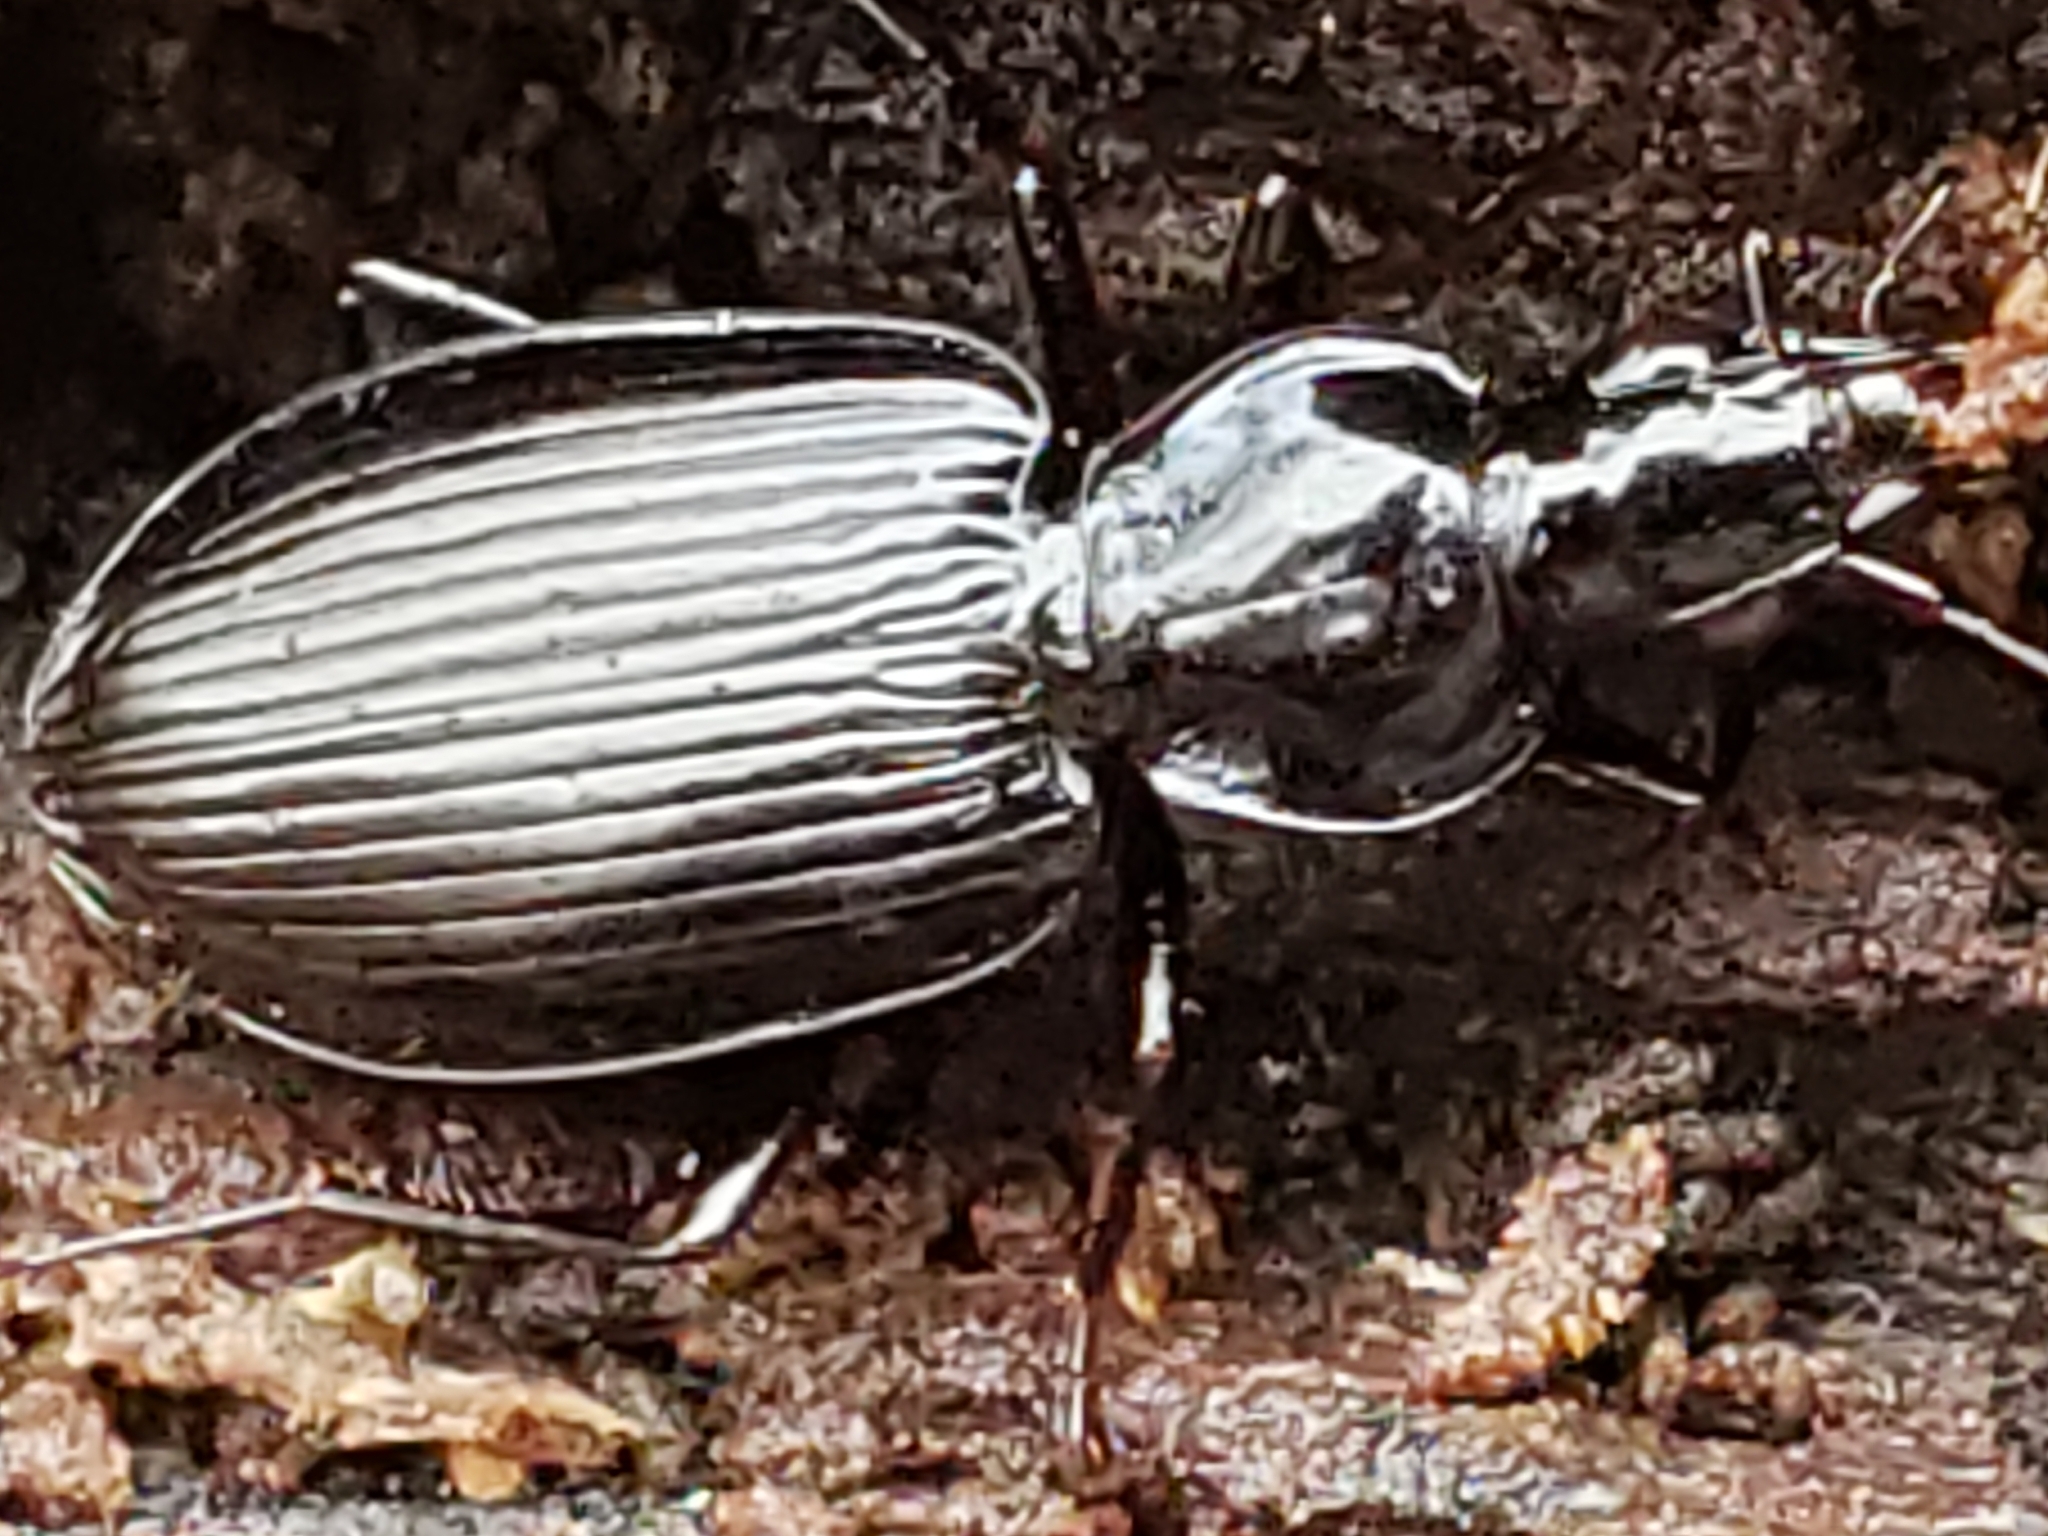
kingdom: Animalia
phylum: Arthropoda
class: Insecta
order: Coleoptera
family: Carabidae
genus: Platynus
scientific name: Platynus decentis
